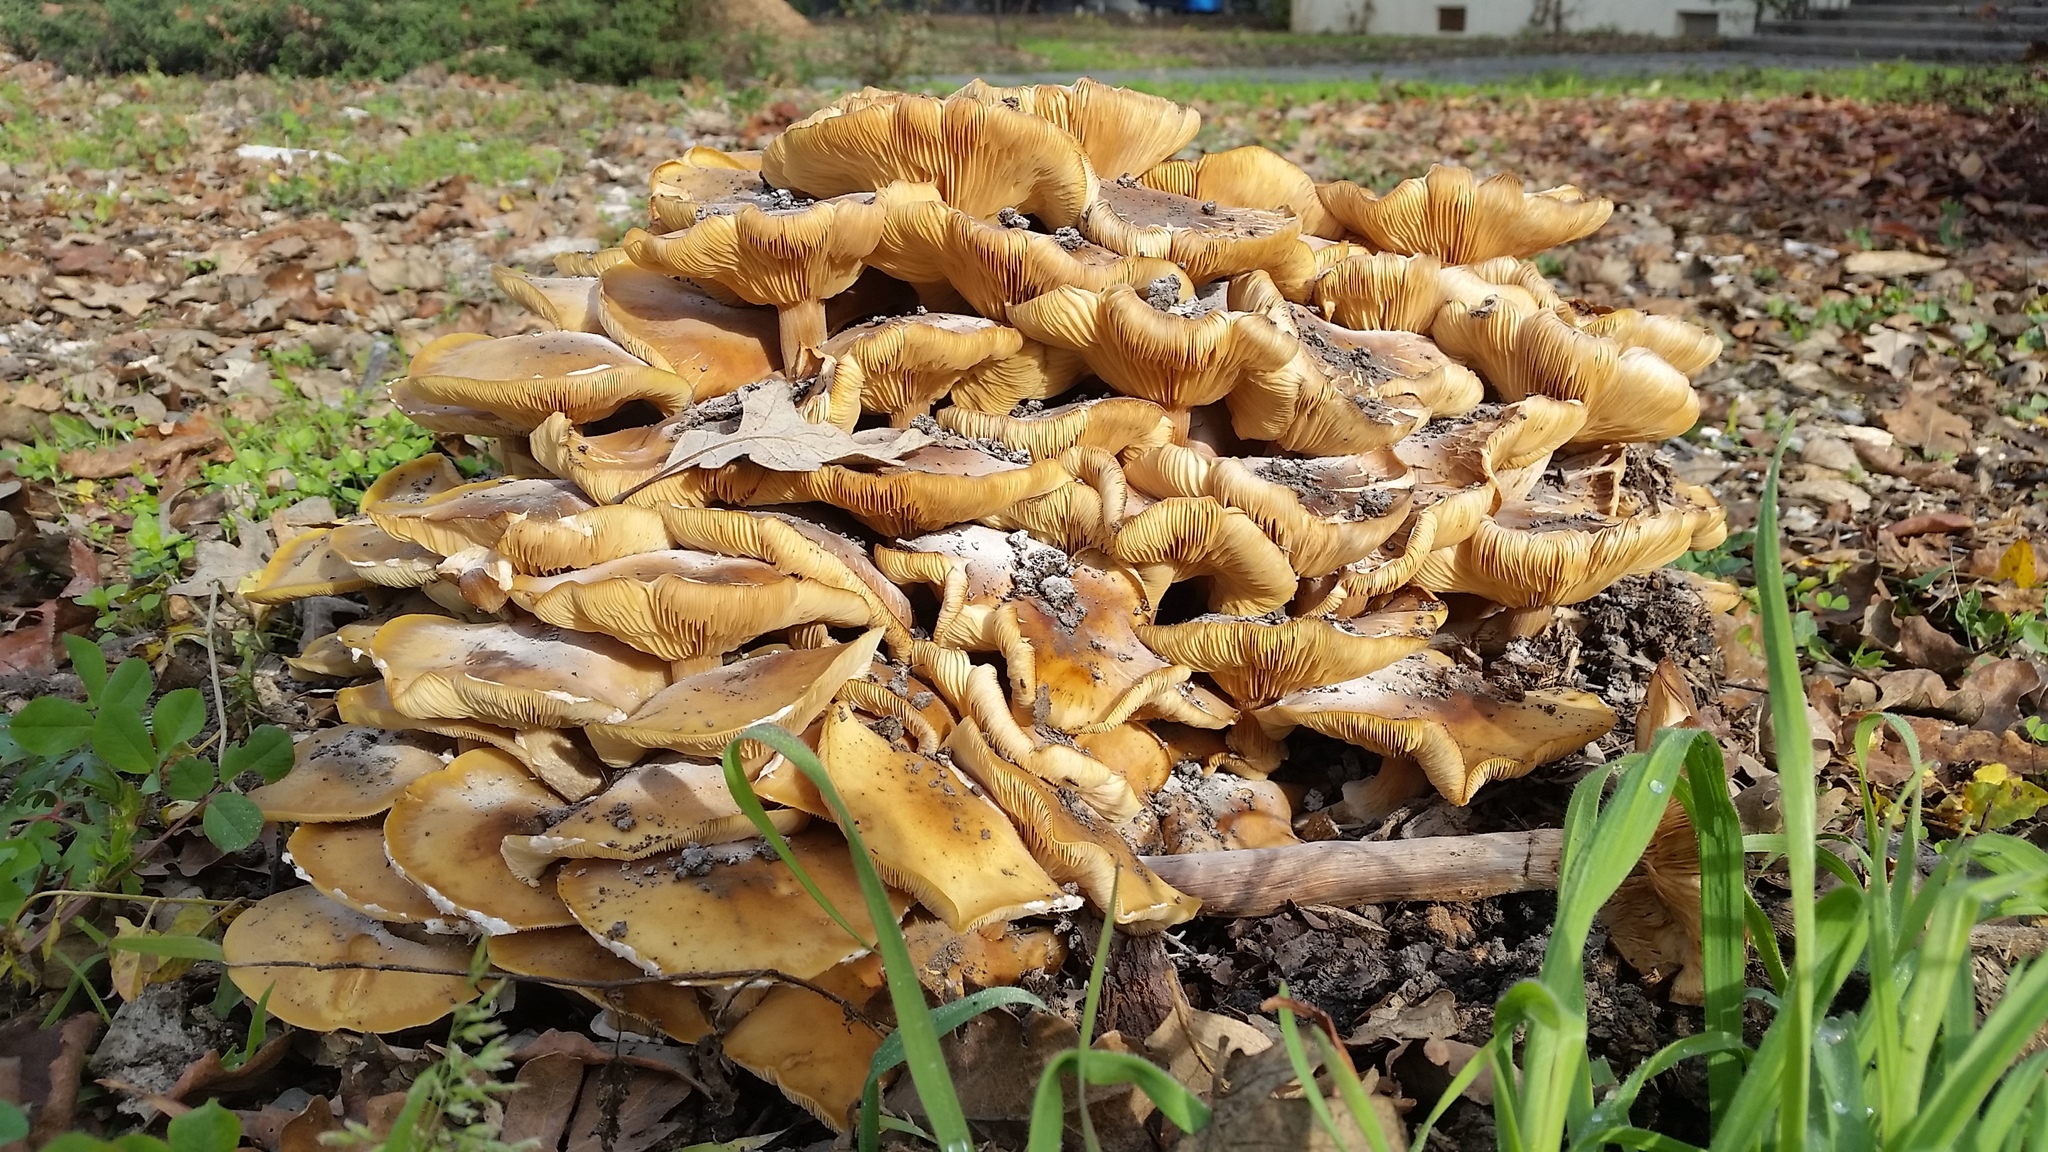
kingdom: Fungi
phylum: Basidiomycota
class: Agaricomycetes
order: Agaricales
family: Physalacriaceae
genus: Armillaria
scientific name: Armillaria mellea
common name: Honey fungus
